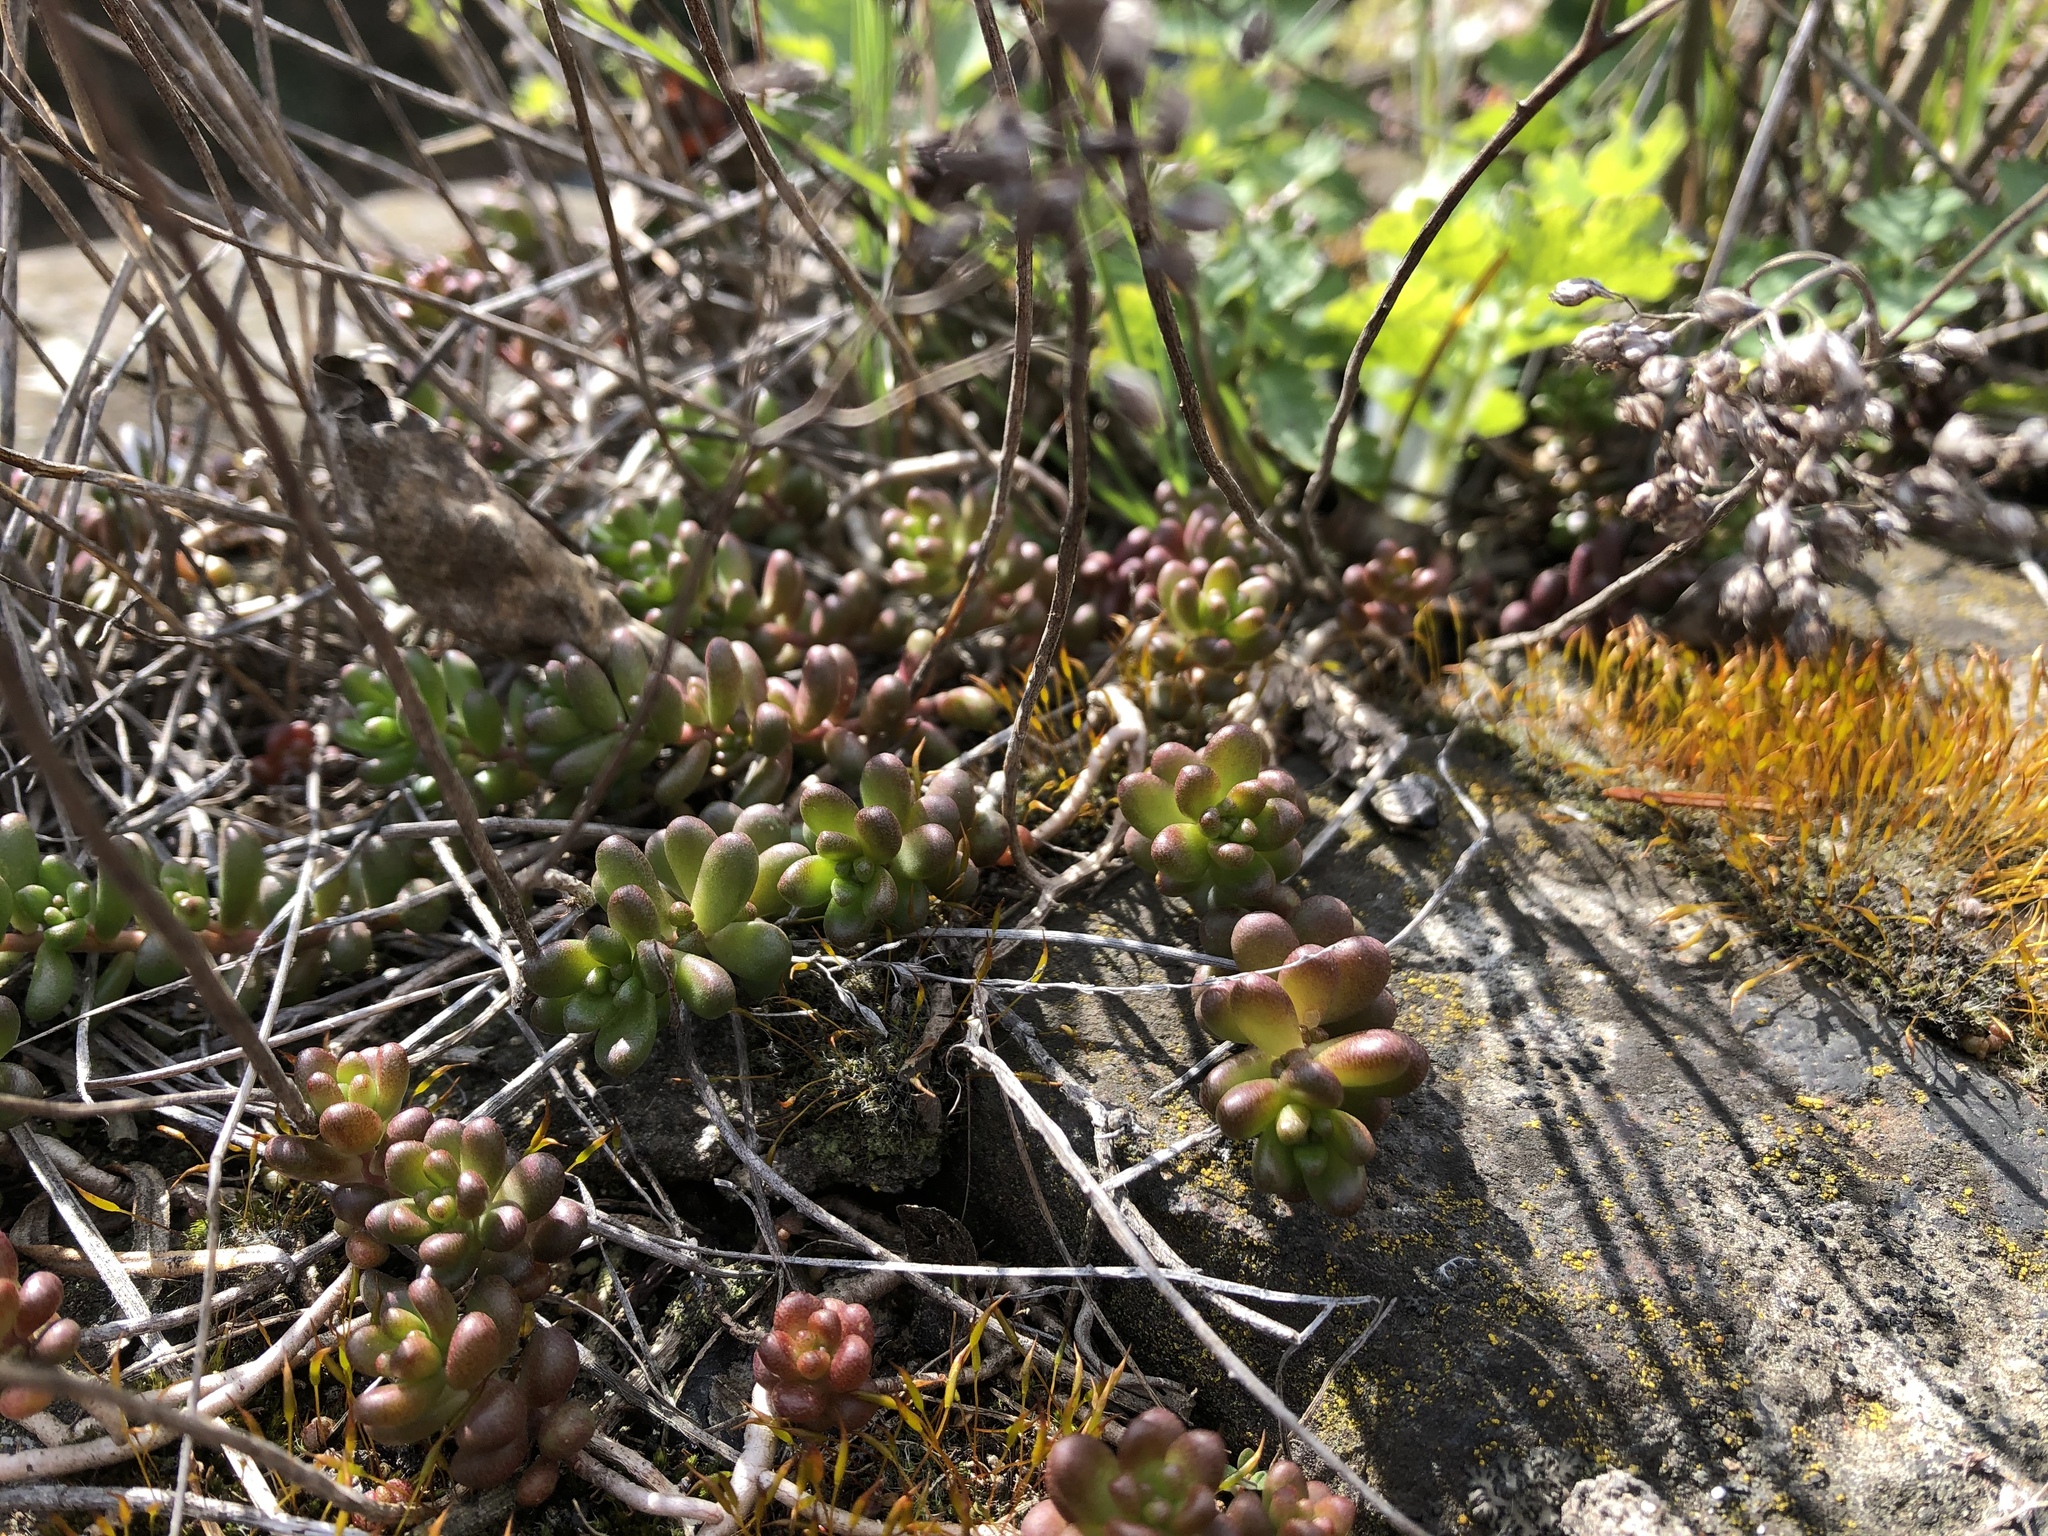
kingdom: Plantae
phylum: Tracheophyta
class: Magnoliopsida
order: Saxifragales
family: Crassulaceae
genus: Sedum
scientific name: Sedum album
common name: White stonecrop
